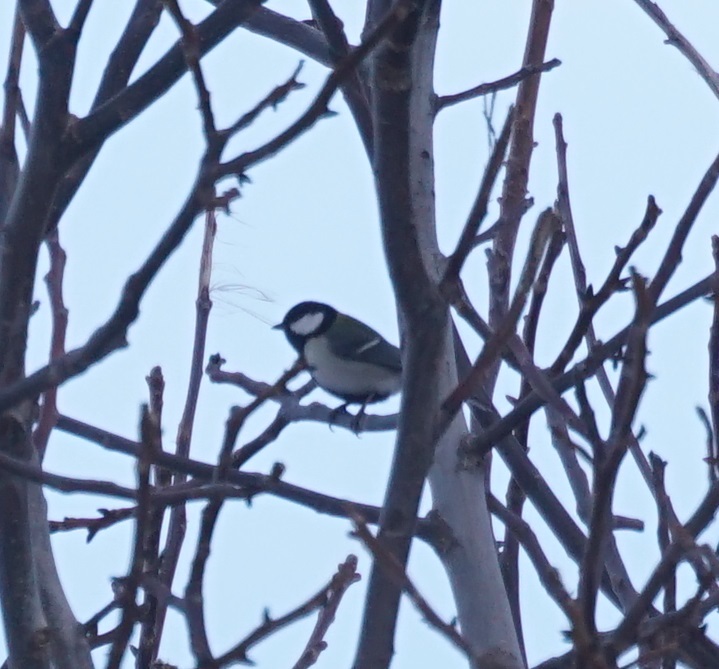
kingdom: Animalia
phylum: Chordata
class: Aves
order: Passeriformes
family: Paridae
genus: Parus
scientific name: Parus minor
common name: Japanese tit
